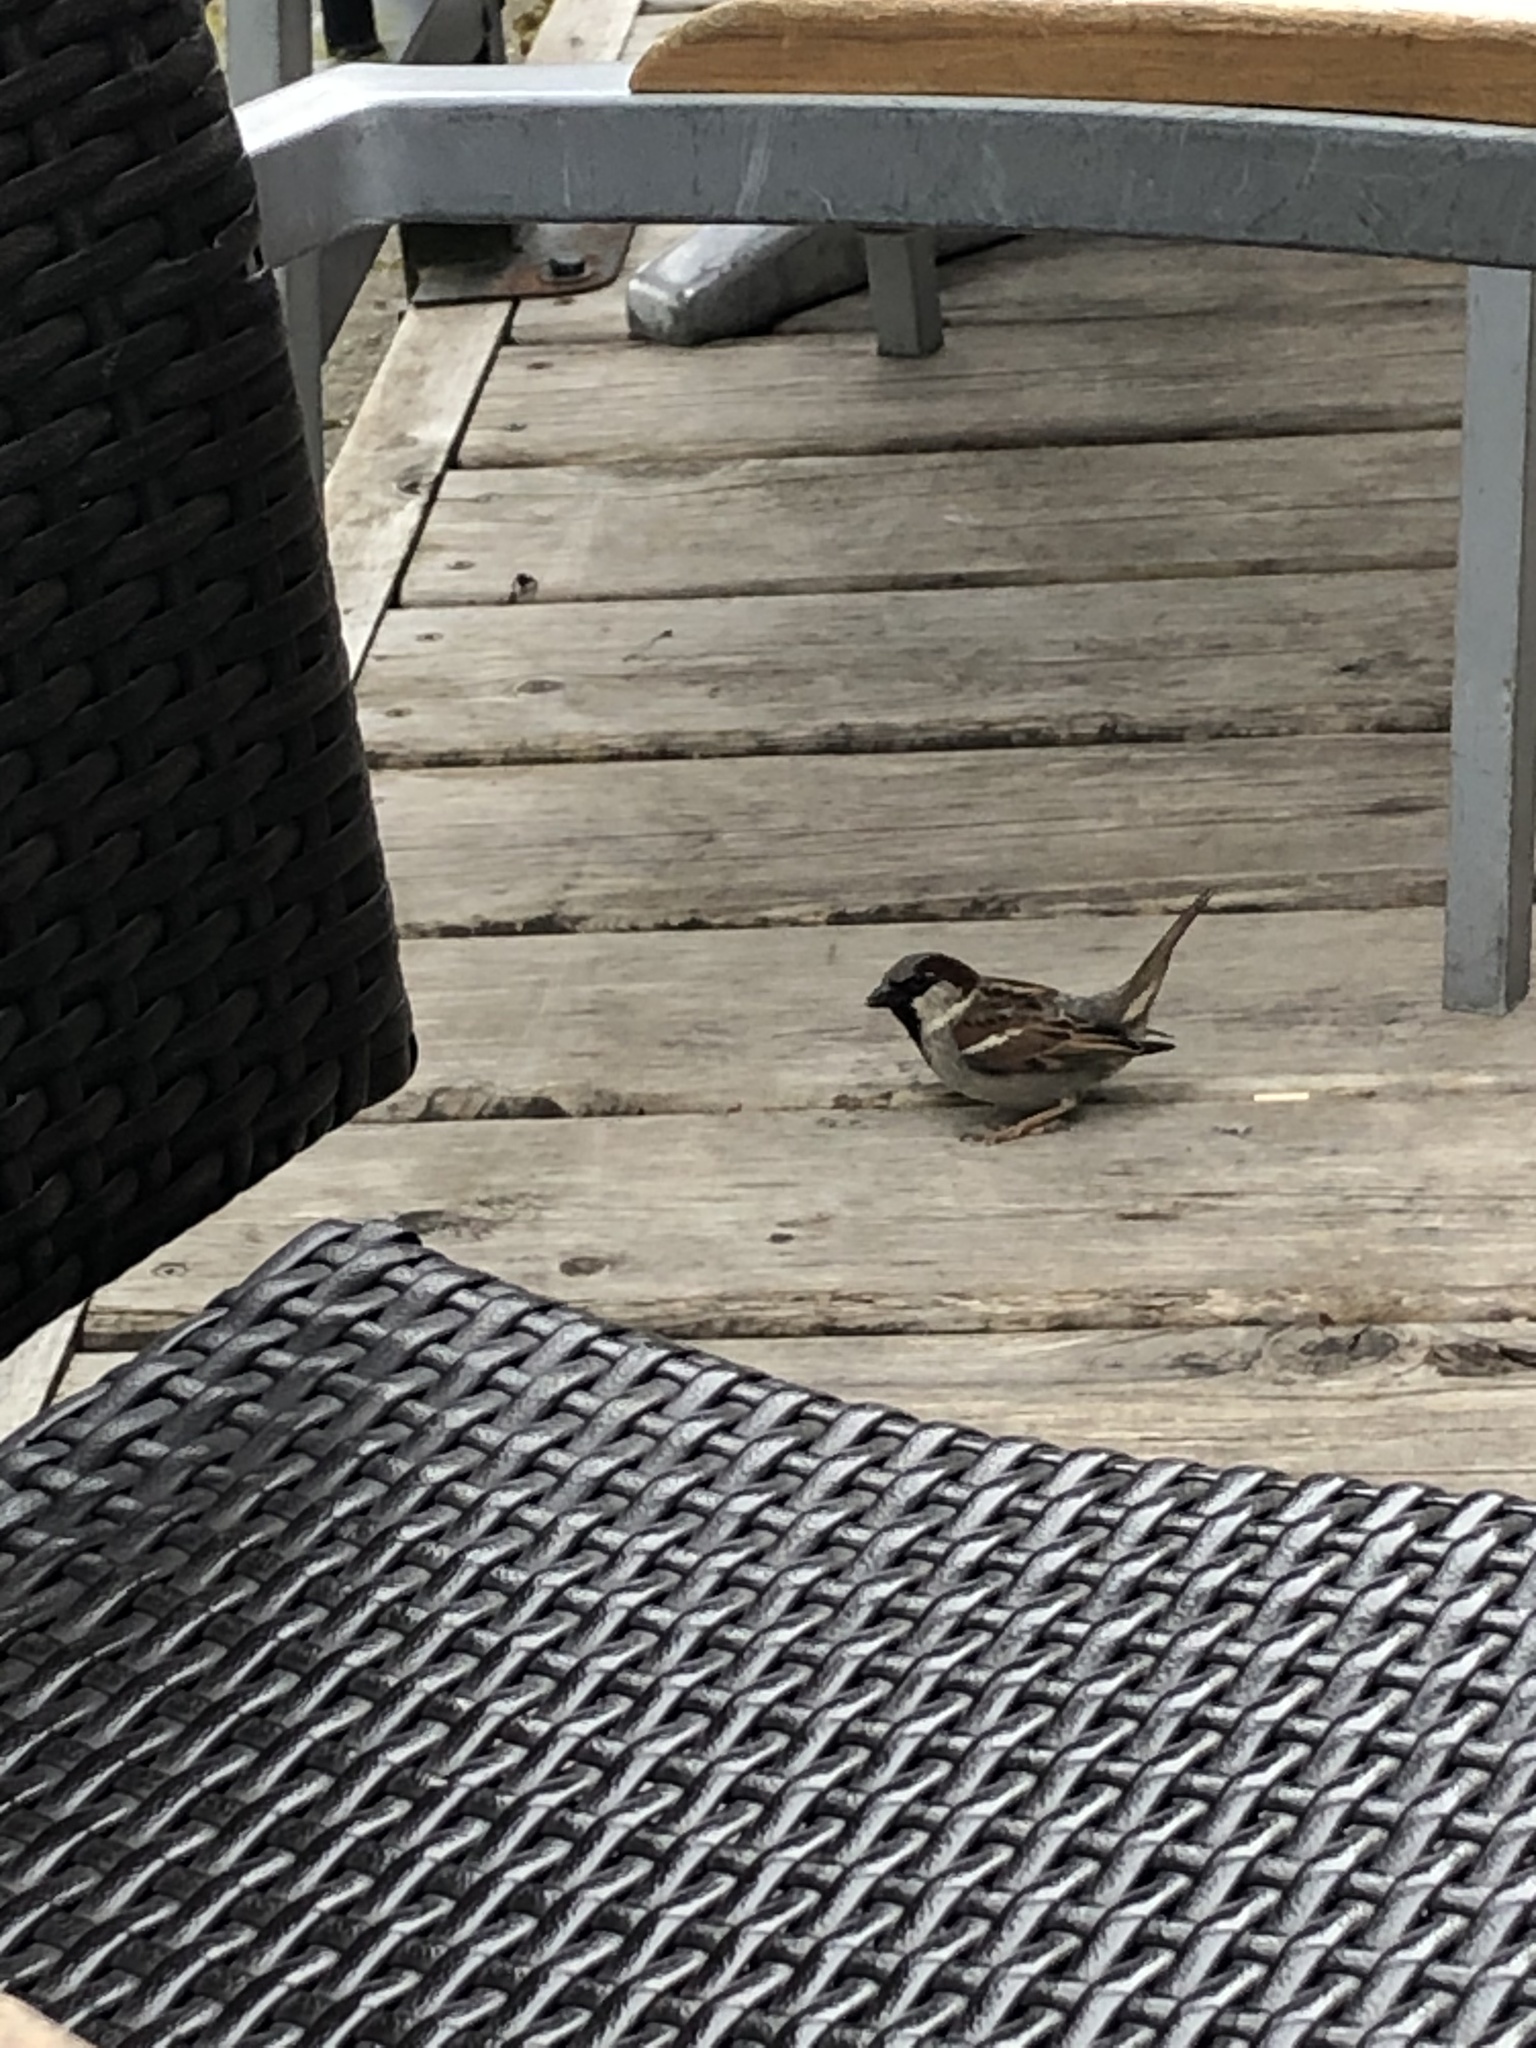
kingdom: Animalia
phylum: Chordata
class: Aves
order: Passeriformes
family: Passeridae
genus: Passer
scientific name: Passer domesticus
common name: House sparrow
